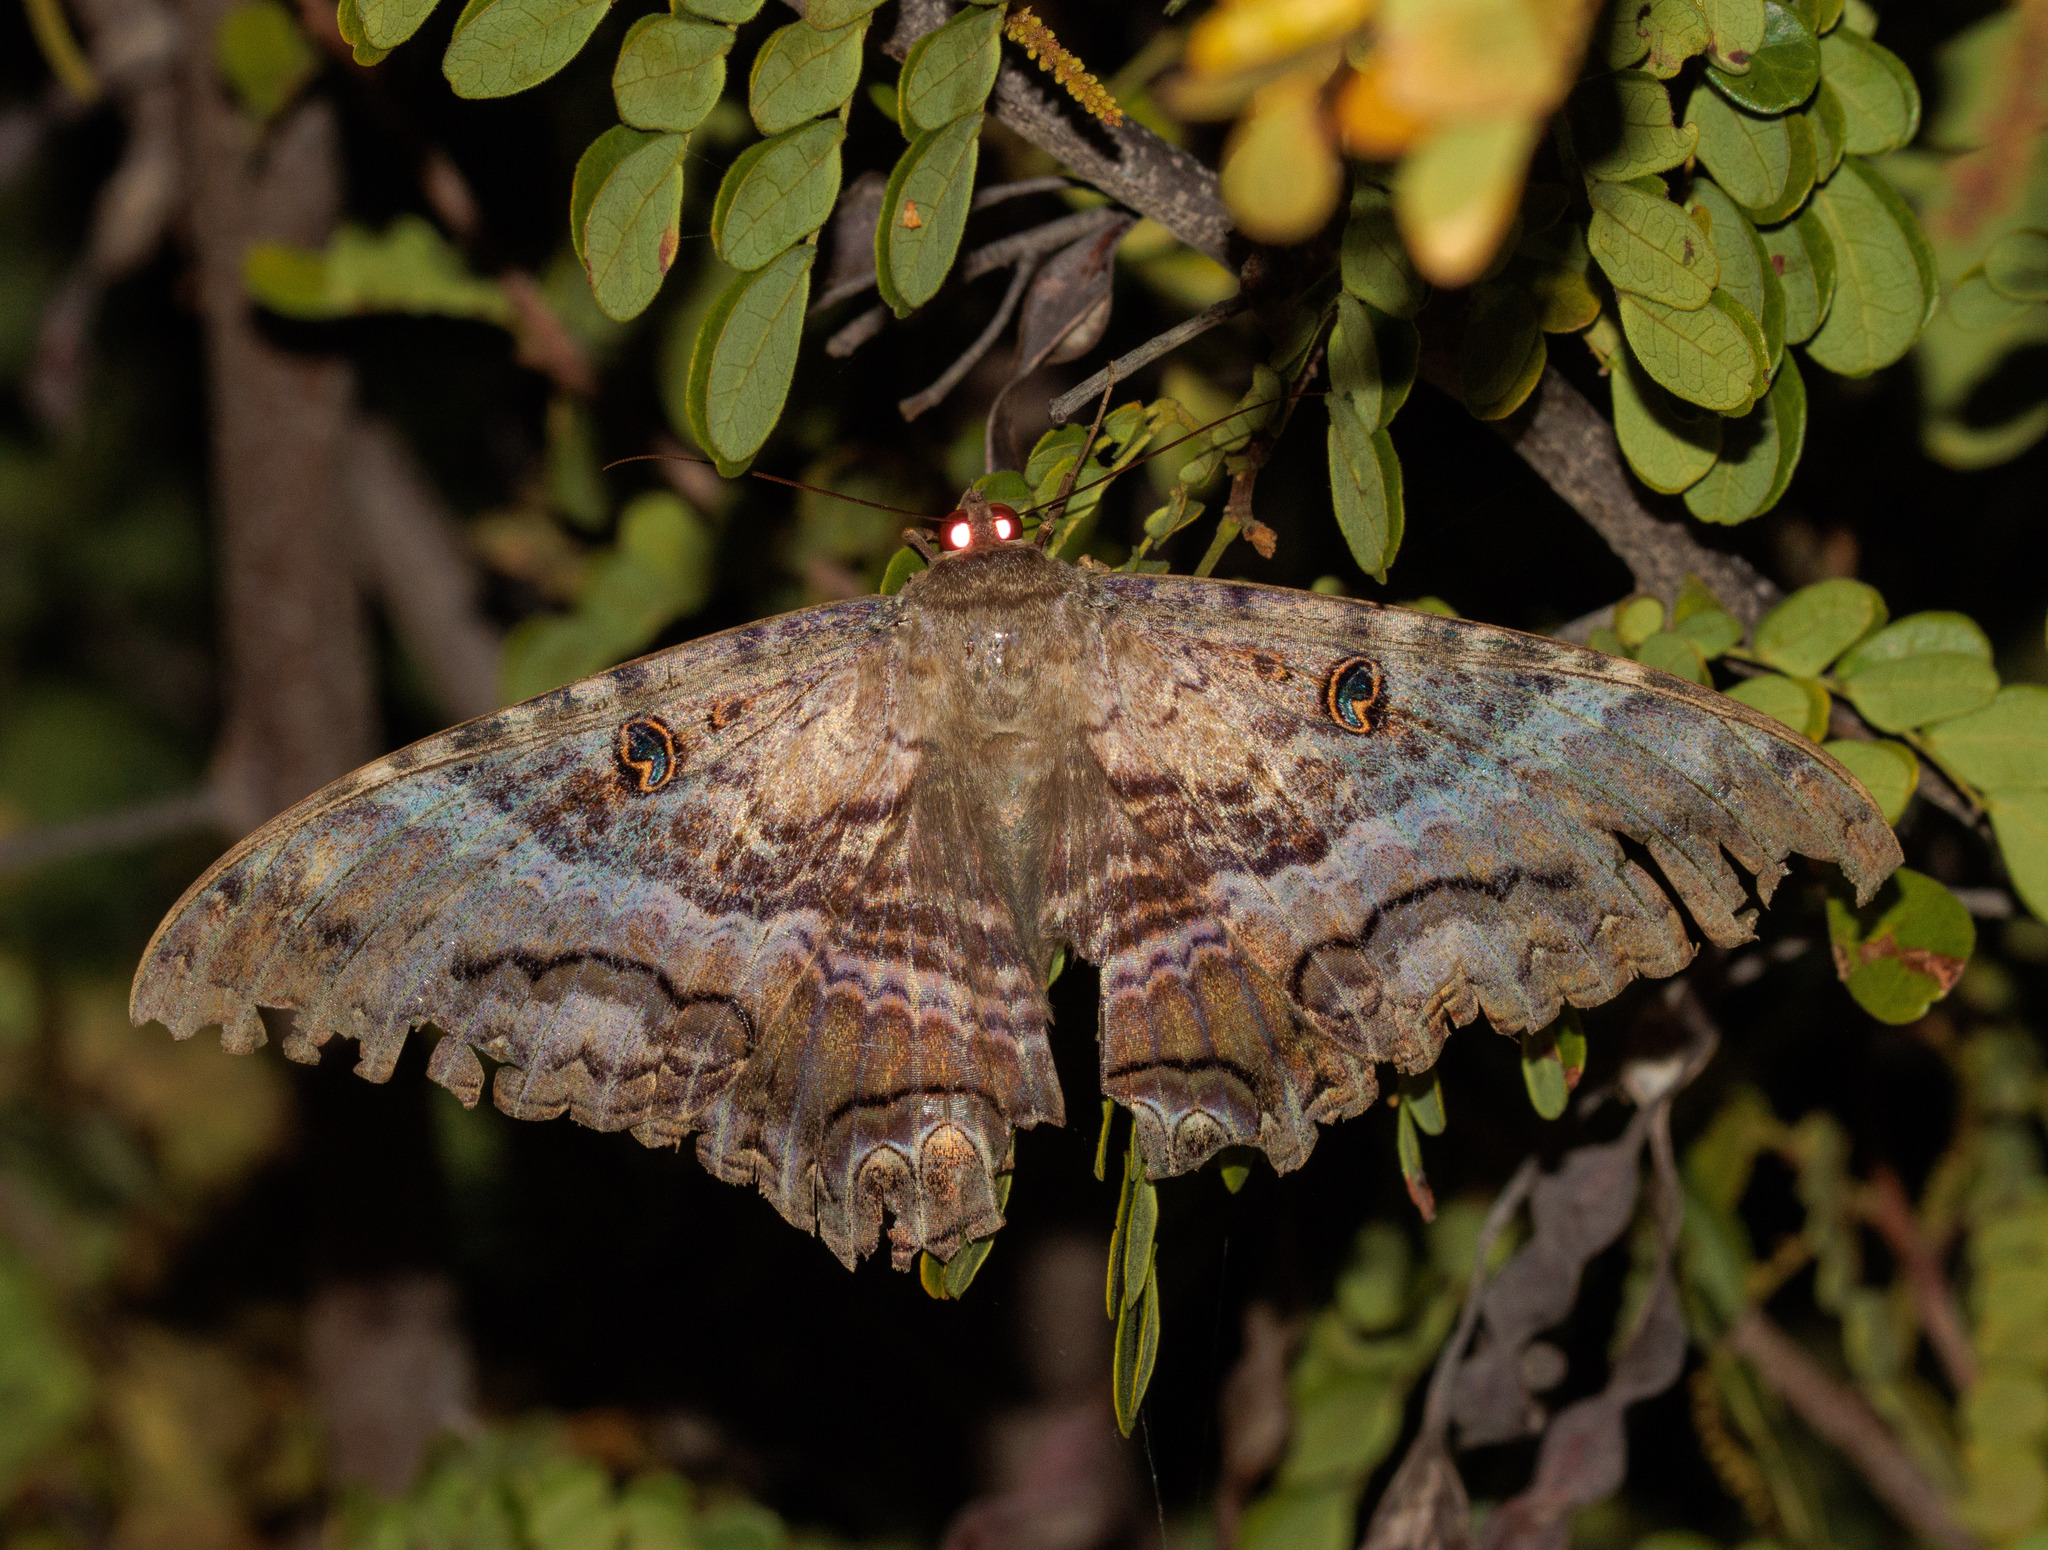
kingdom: Animalia
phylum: Arthropoda
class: Insecta
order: Lepidoptera
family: Erebidae
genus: Ascalapha
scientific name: Ascalapha odorata
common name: Black witch
